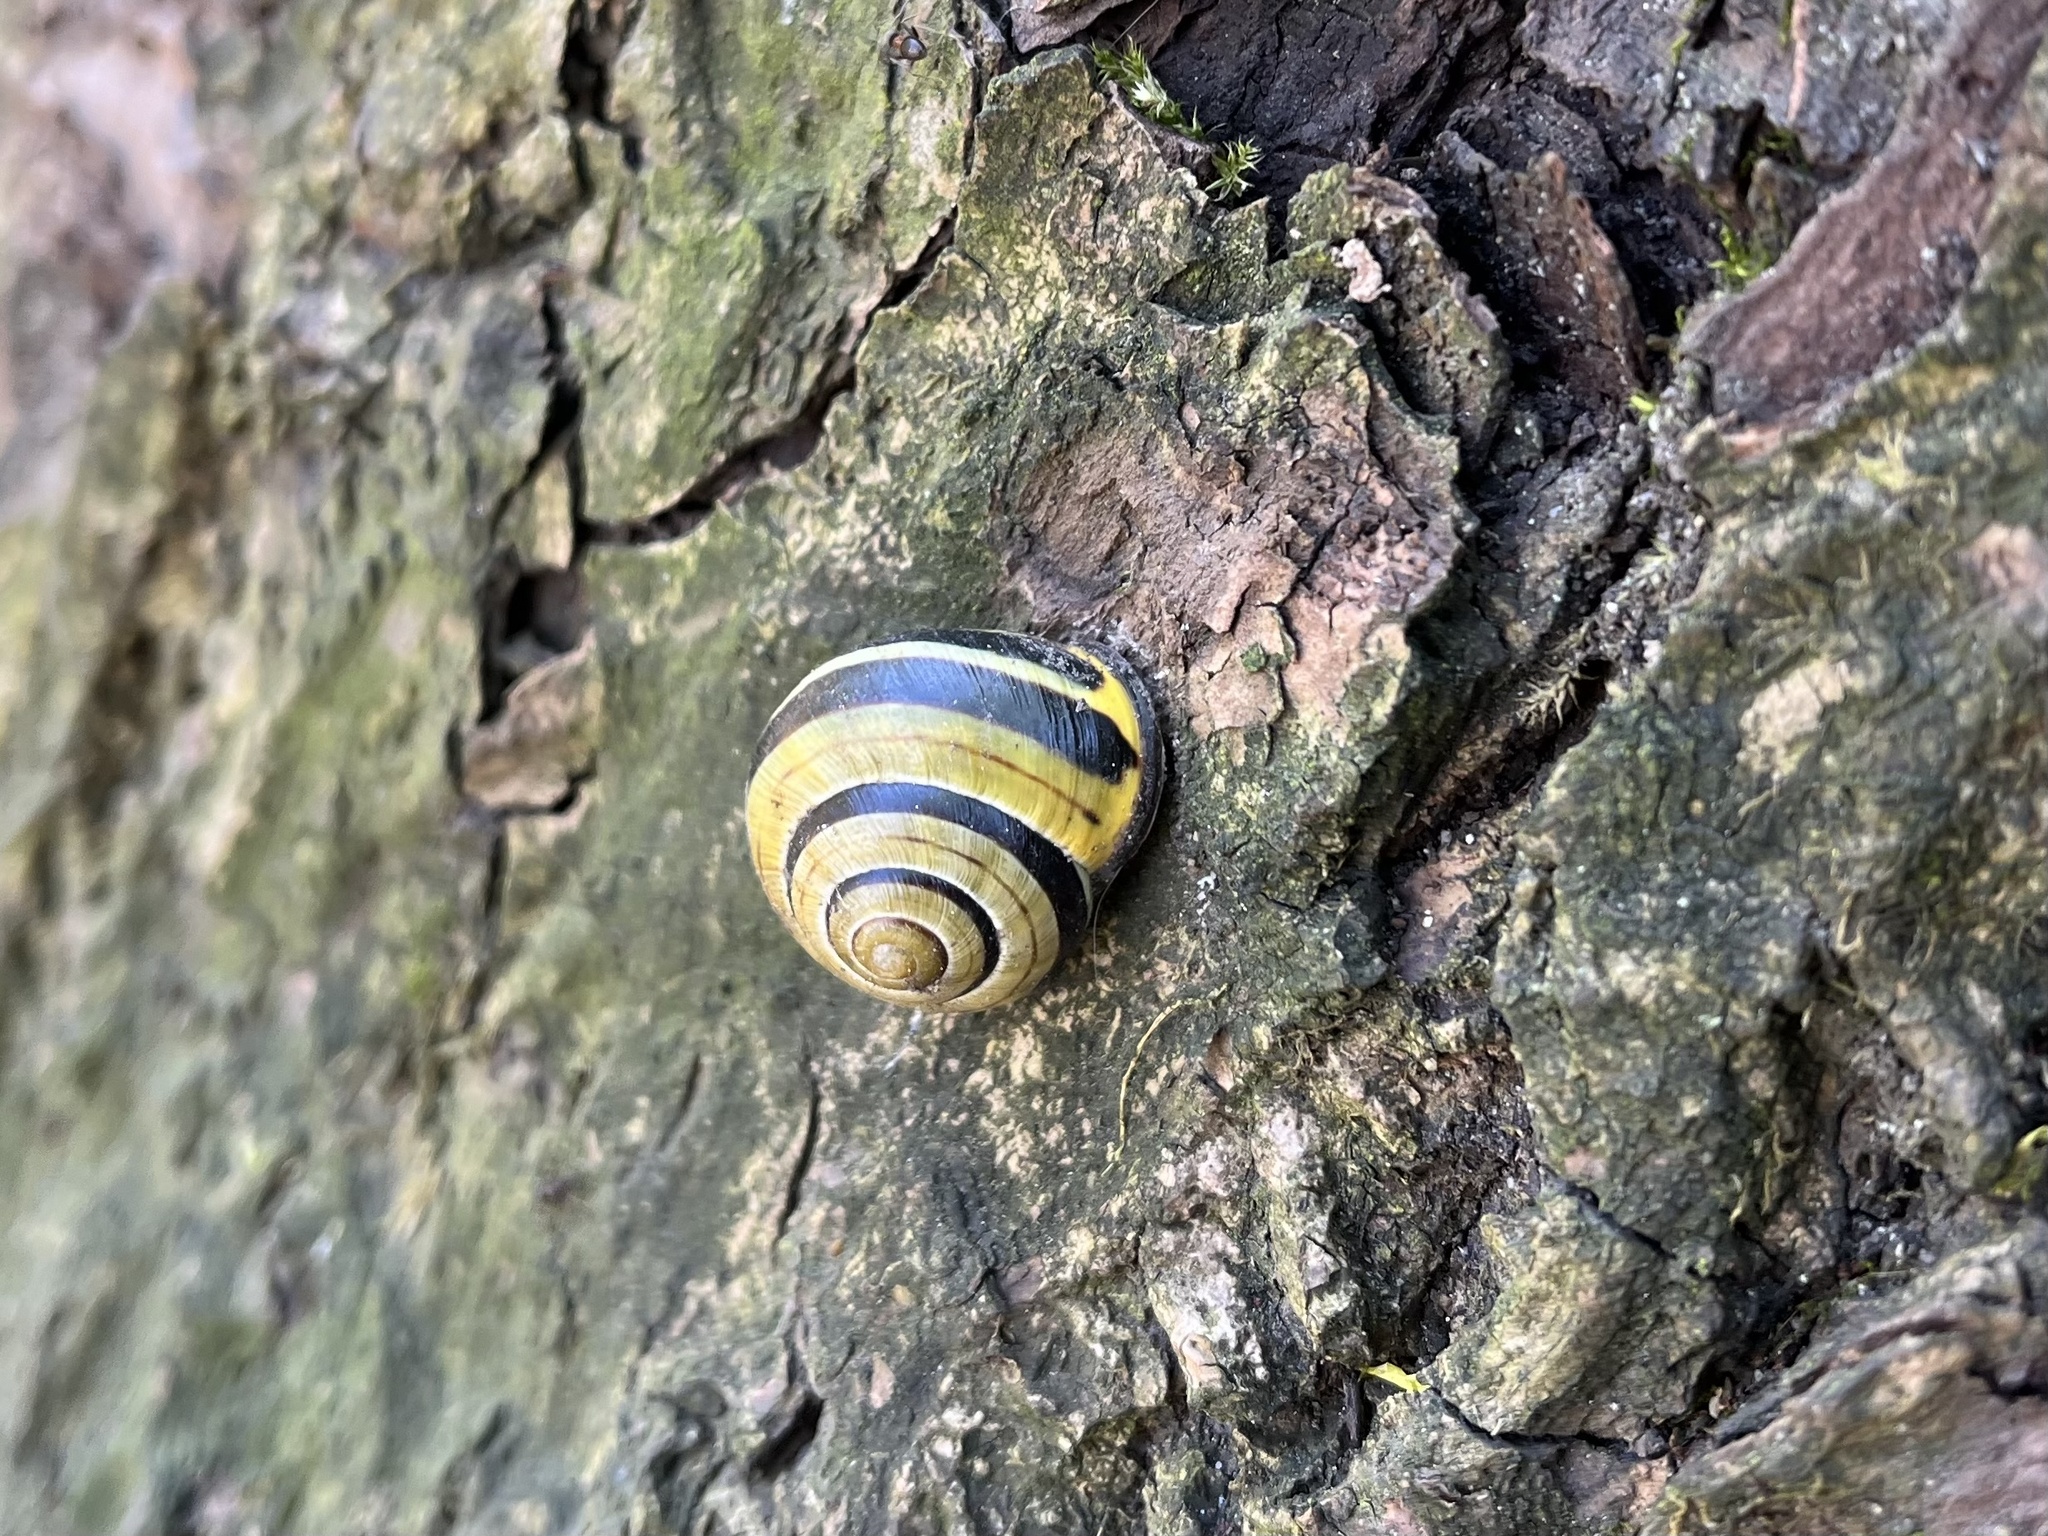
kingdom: Animalia
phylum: Mollusca
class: Gastropoda
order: Stylommatophora
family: Helicidae
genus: Cepaea
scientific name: Cepaea nemoralis
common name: Grovesnail
